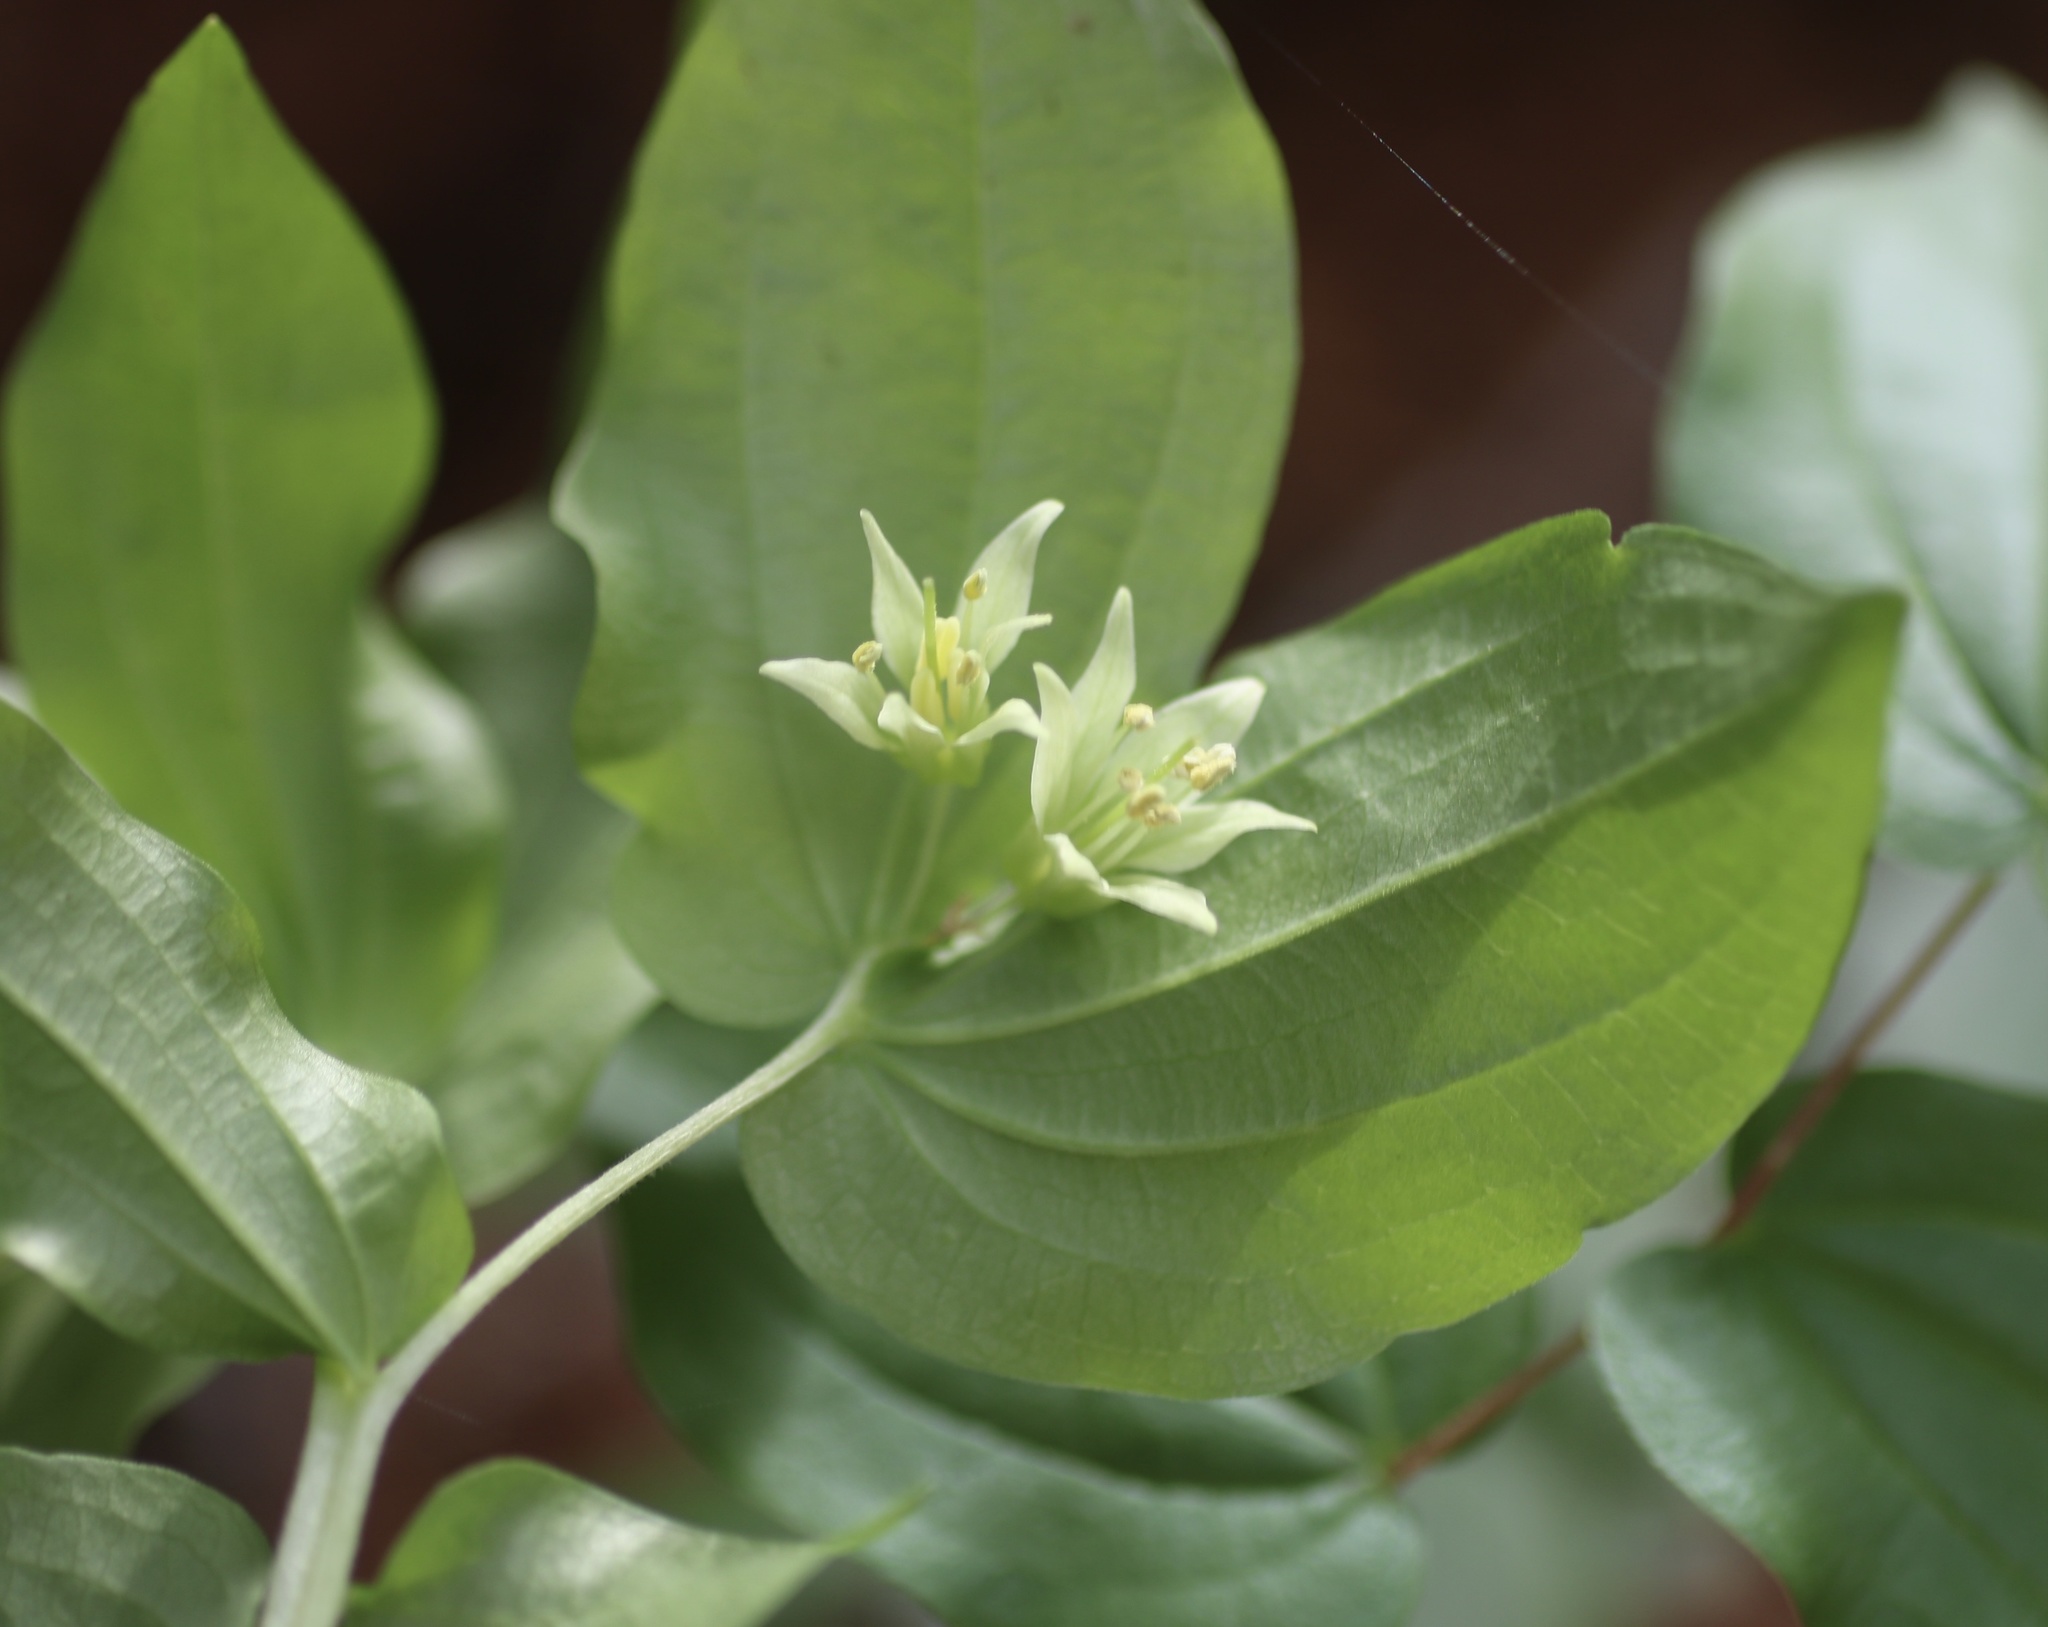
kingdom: Plantae
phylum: Tracheophyta
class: Liliopsida
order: Liliales
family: Liliaceae
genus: Prosartes
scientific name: Prosartes hookeri
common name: Fairy-bells
